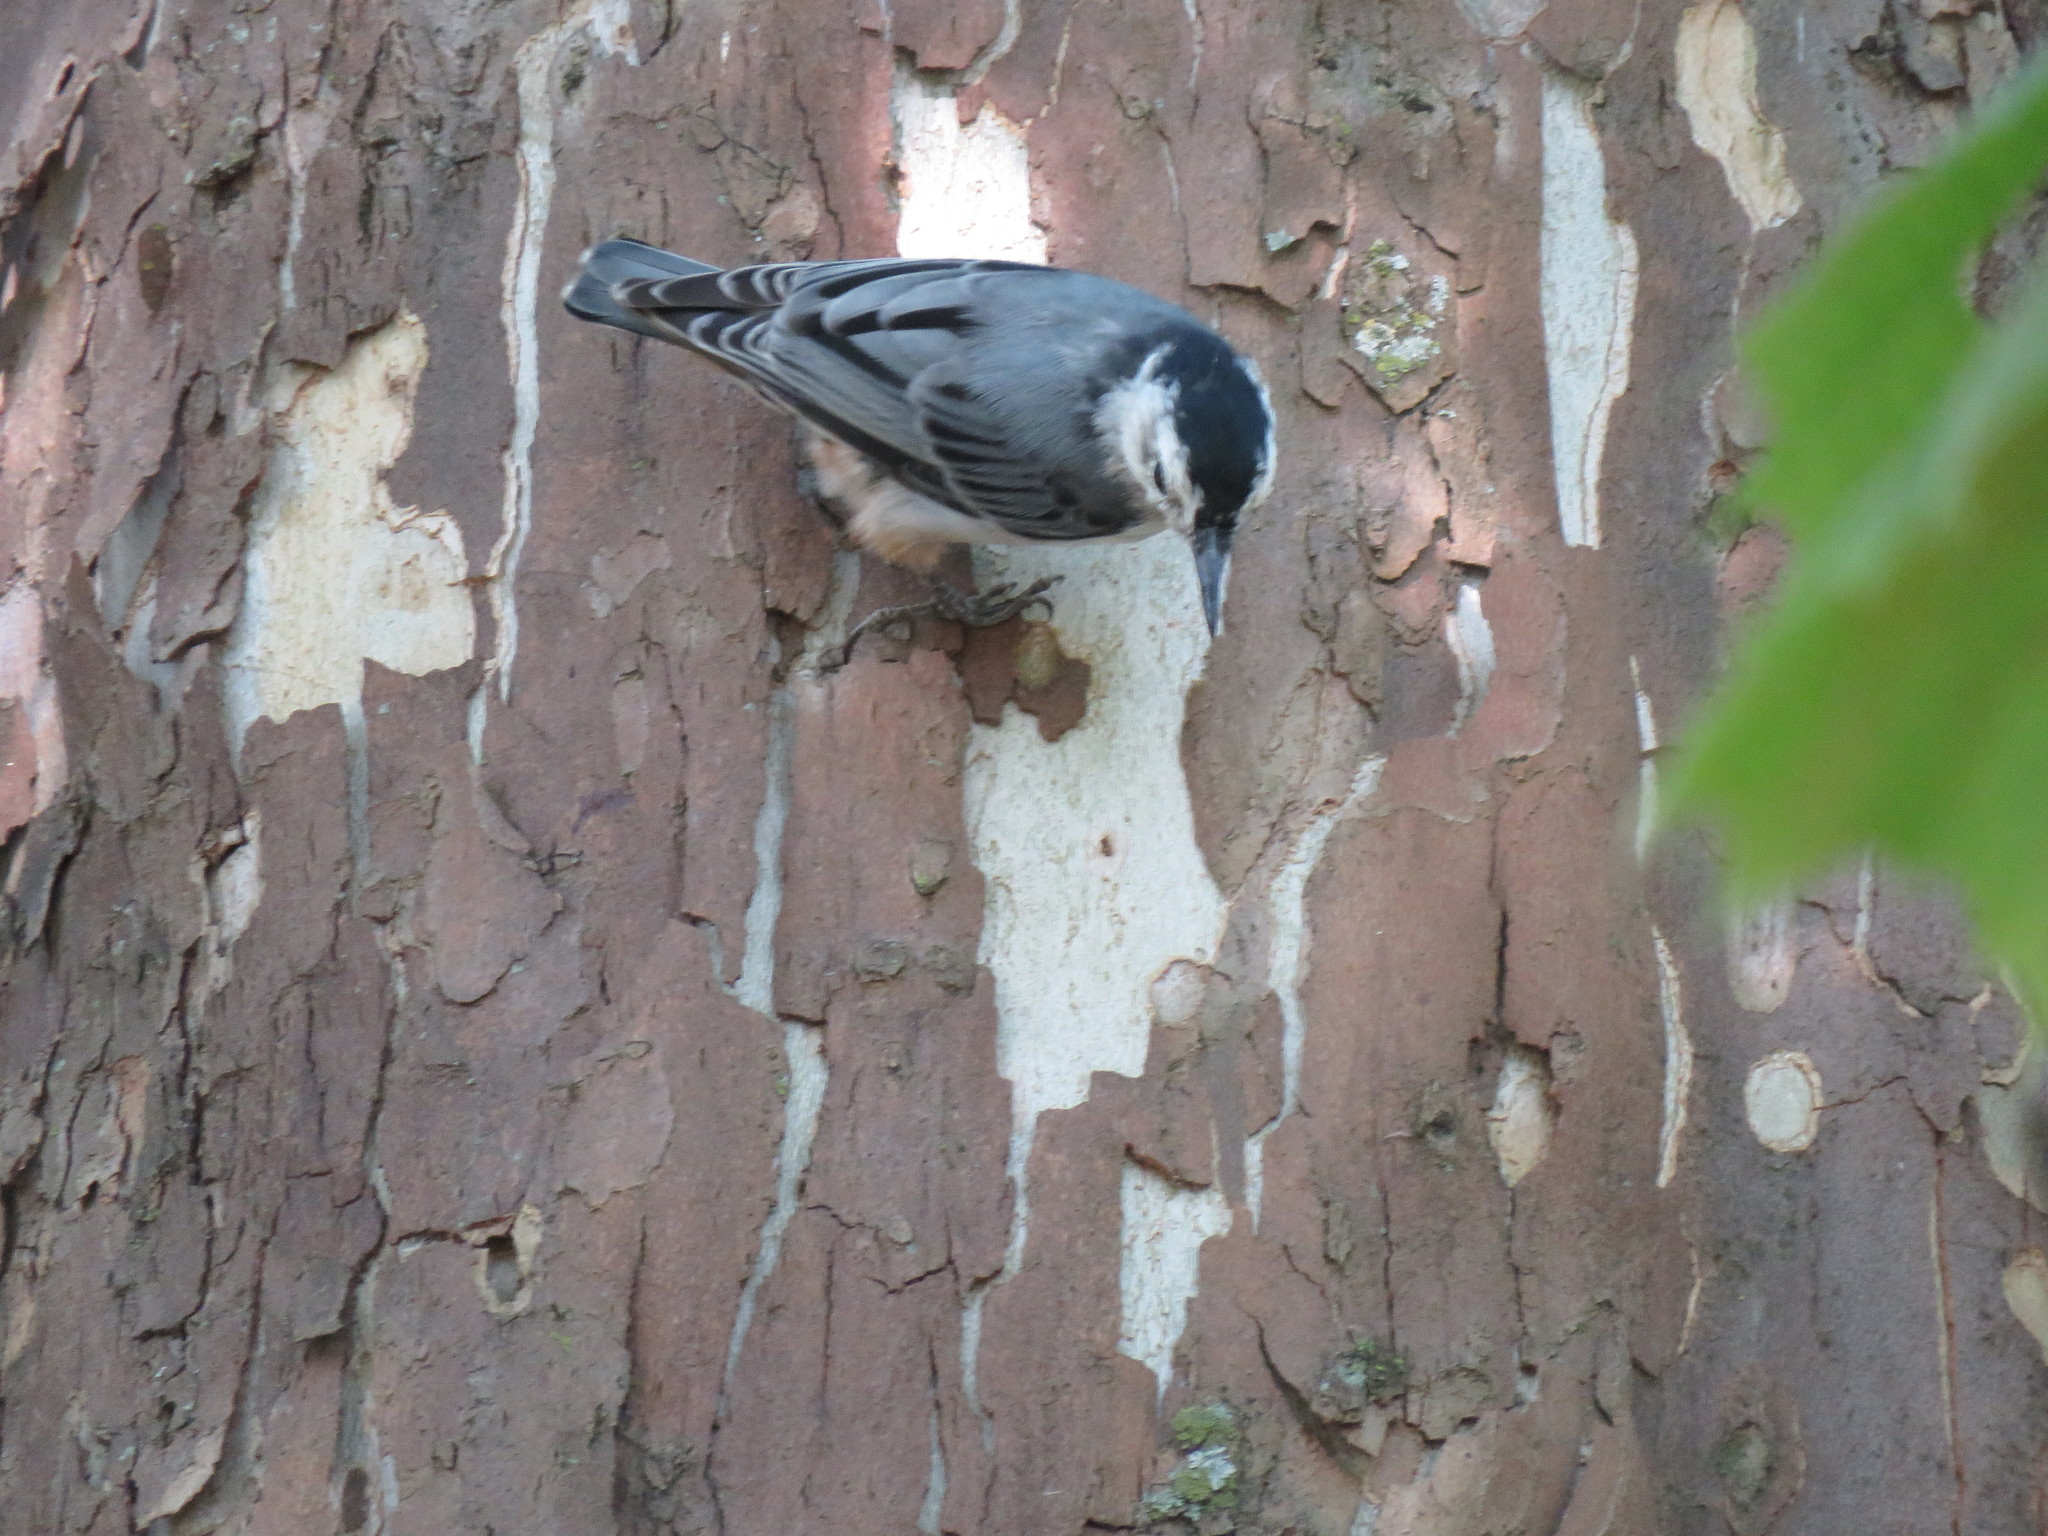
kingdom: Animalia
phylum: Chordata
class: Aves
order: Passeriformes
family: Sittidae
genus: Sitta
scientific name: Sitta carolinensis
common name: White-breasted nuthatch
